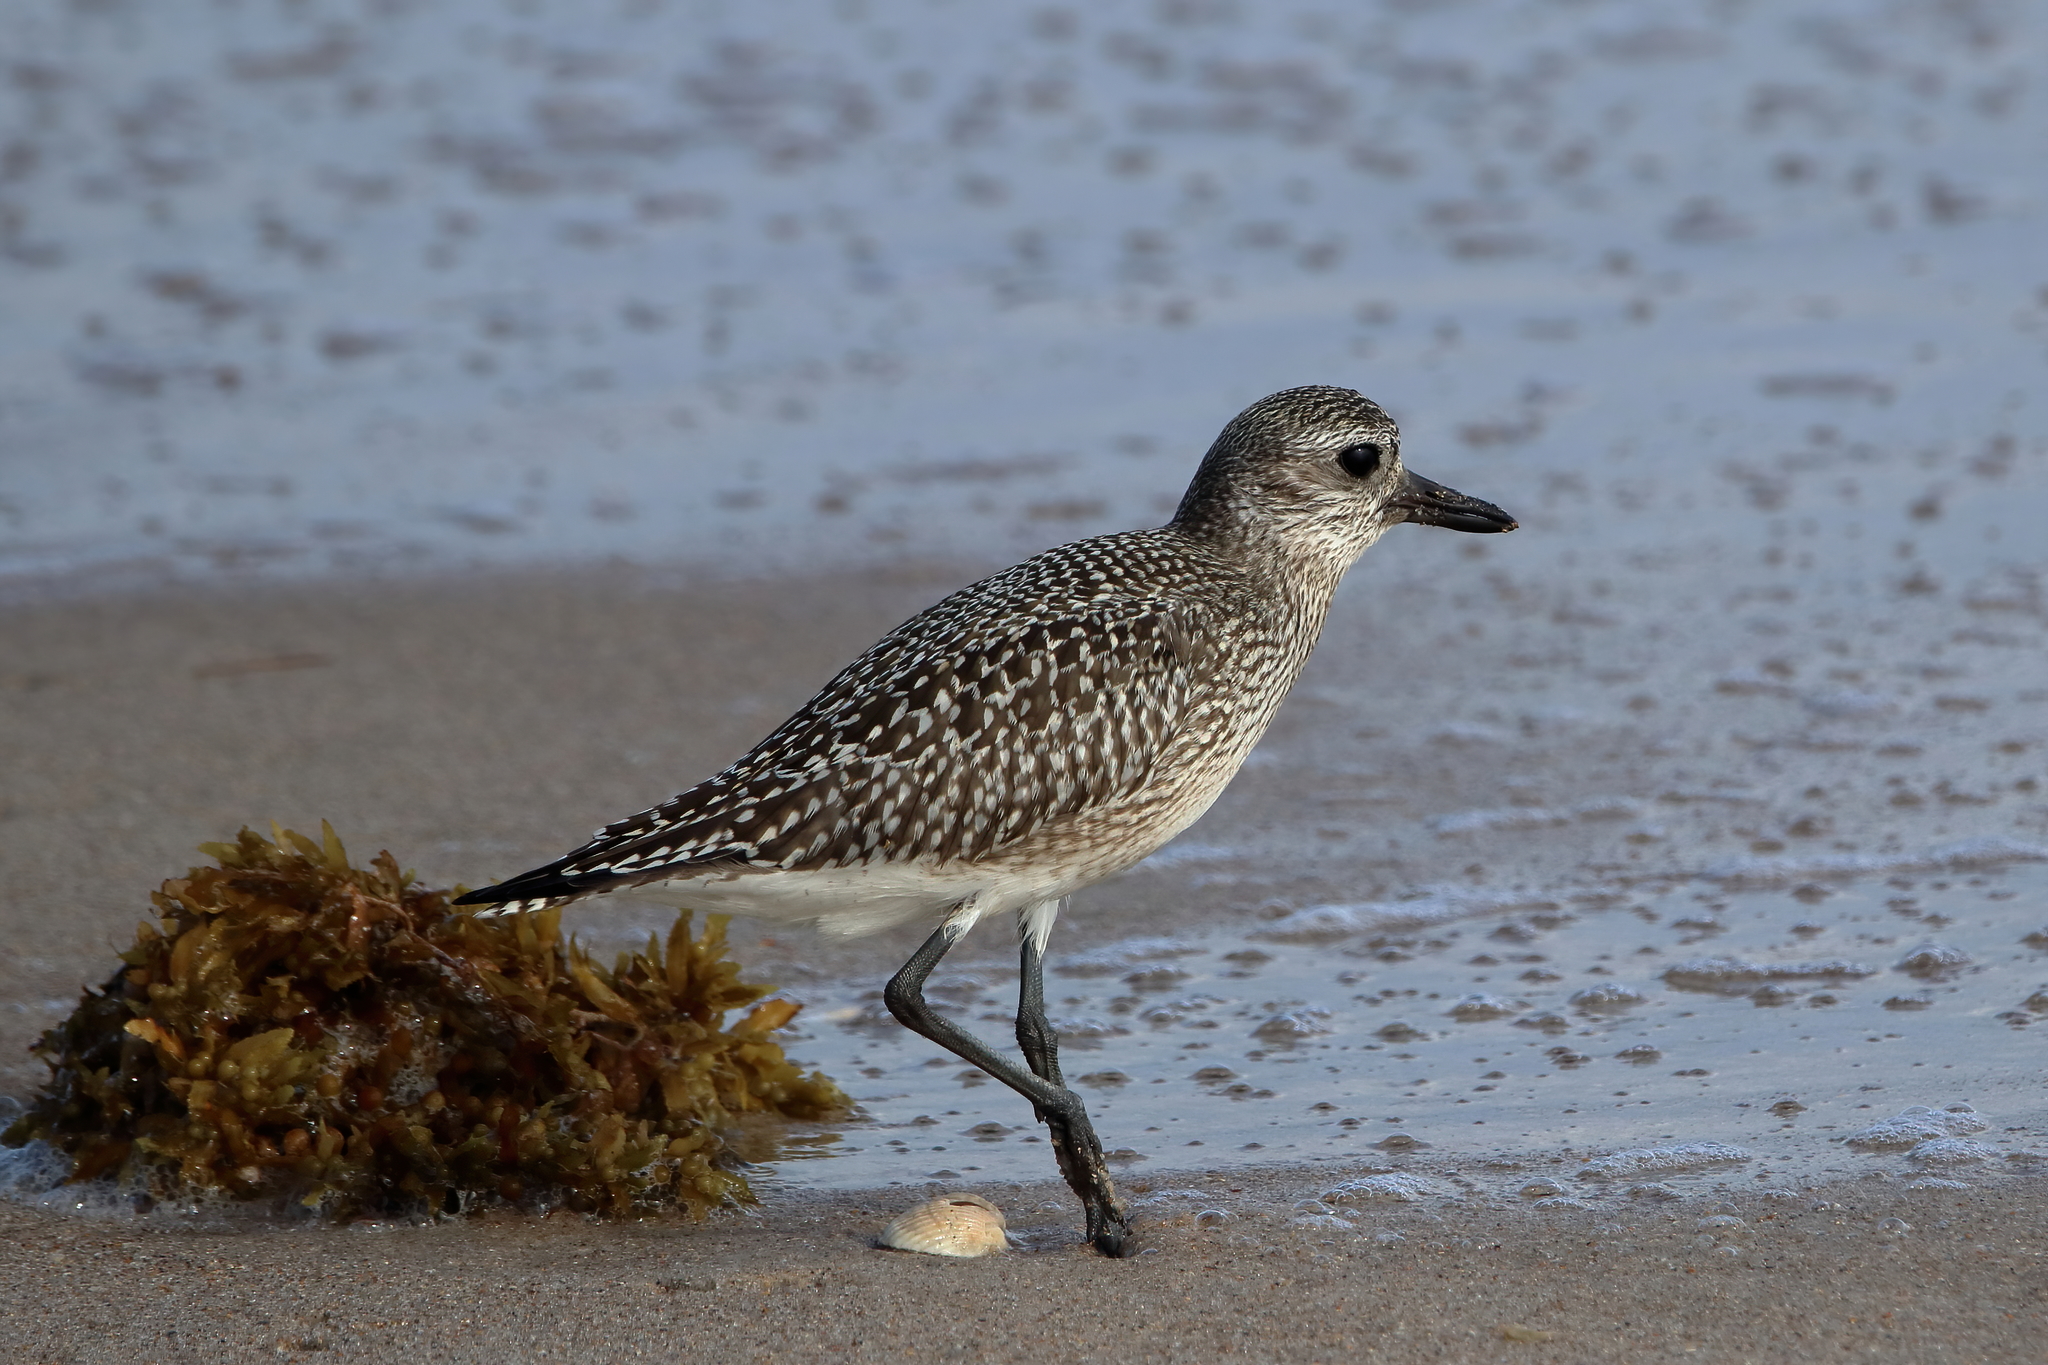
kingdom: Animalia
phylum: Chordata
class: Aves
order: Charadriiformes
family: Charadriidae
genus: Pluvialis
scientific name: Pluvialis squatarola
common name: Grey plover
